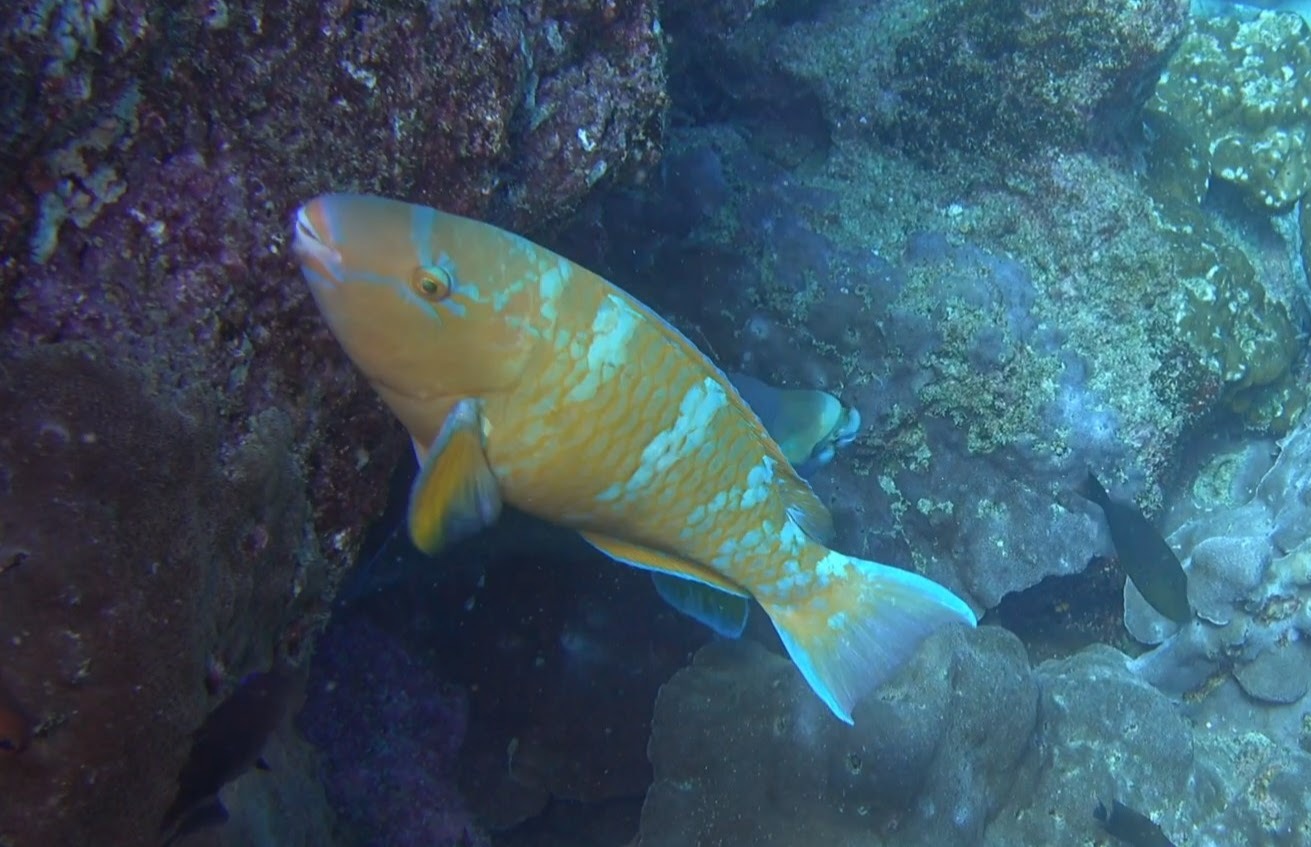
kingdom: Animalia
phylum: Chordata
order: Perciformes
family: Scaridae
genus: Scarus
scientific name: Scarus ghobban
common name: Blue-barred parrotfish
